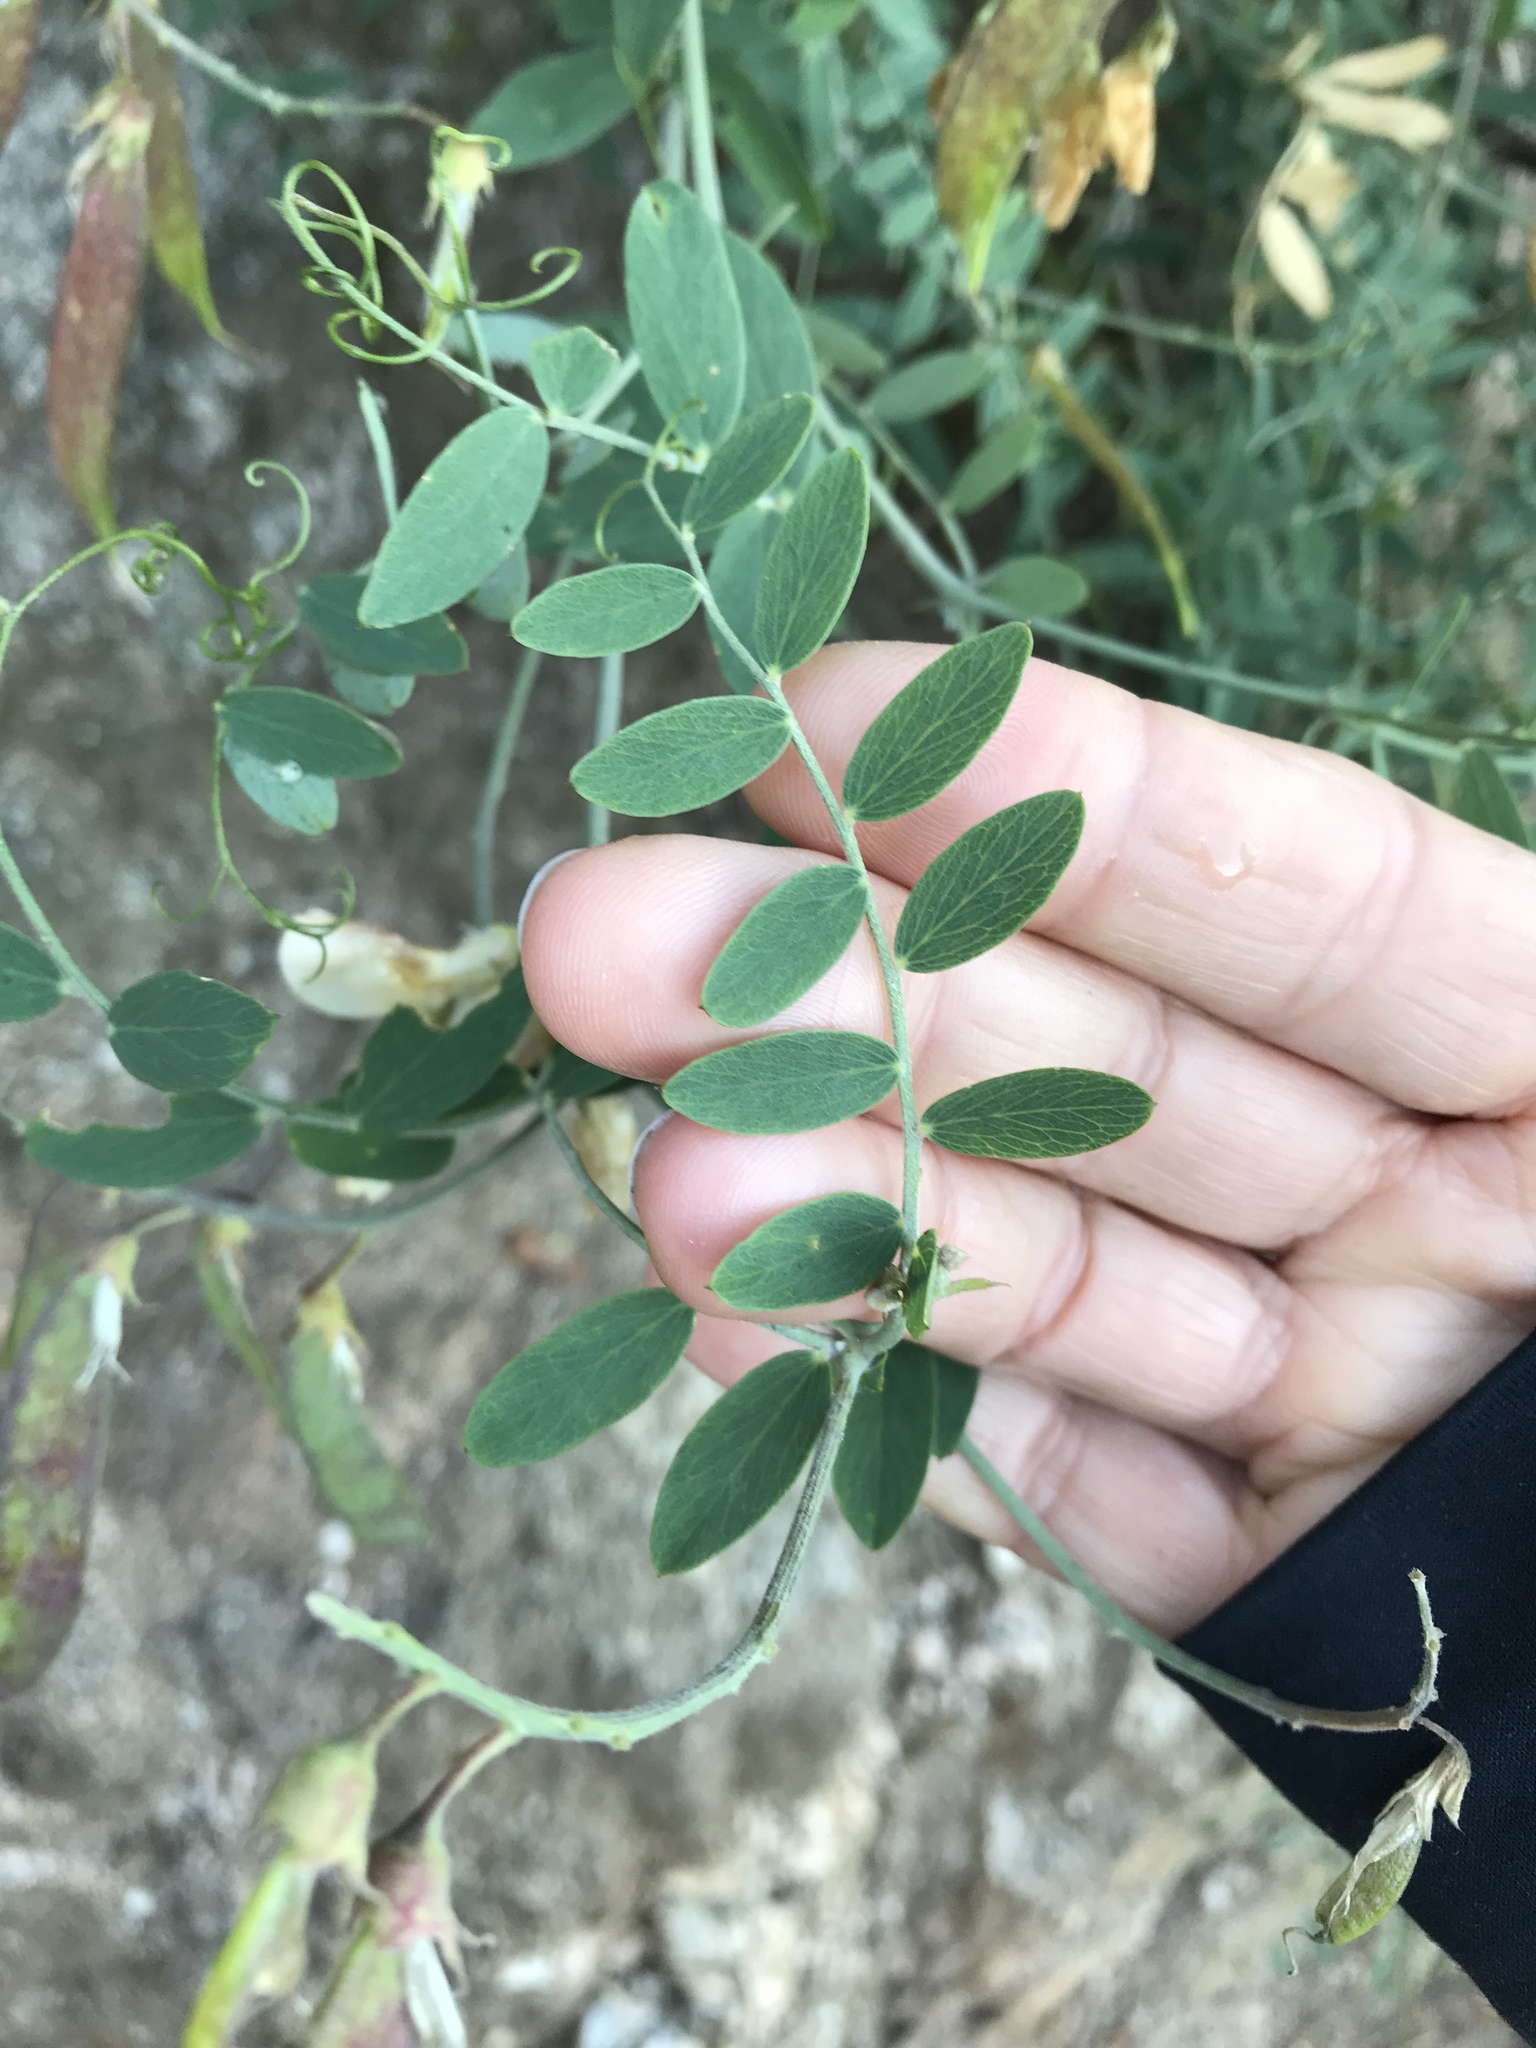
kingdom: Plantae
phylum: Tracheophyta
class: Magnoliopsida
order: Fabales
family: Fabaceae
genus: Lathyrus
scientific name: Lathyrus vestitus
